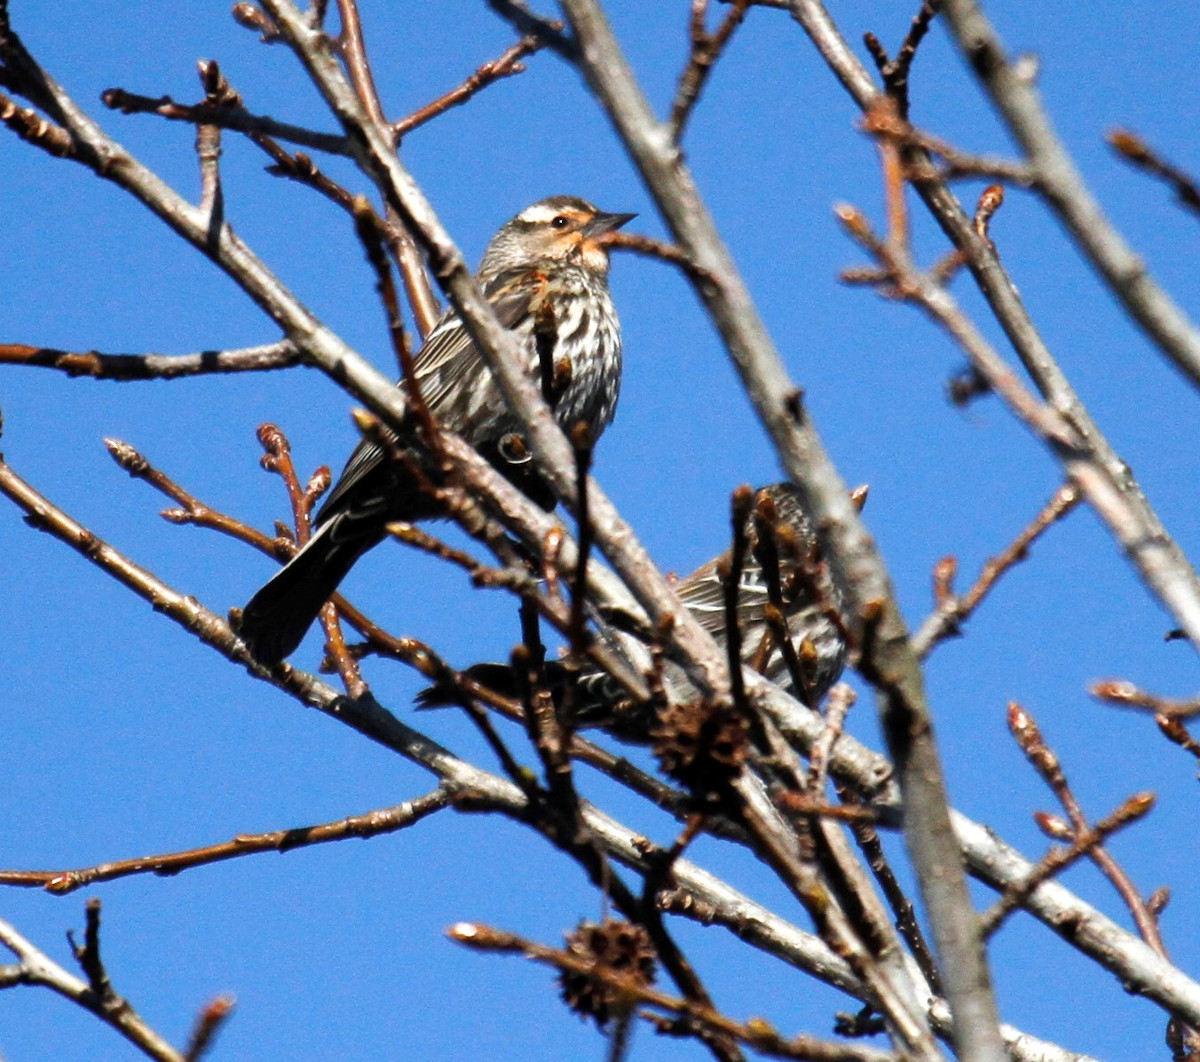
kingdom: Animalia
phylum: Chordata
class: Aves
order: Passeriformes
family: Icteridae
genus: Agelaius
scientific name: Agelaius phoeniceus
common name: Red-winged blackbird
